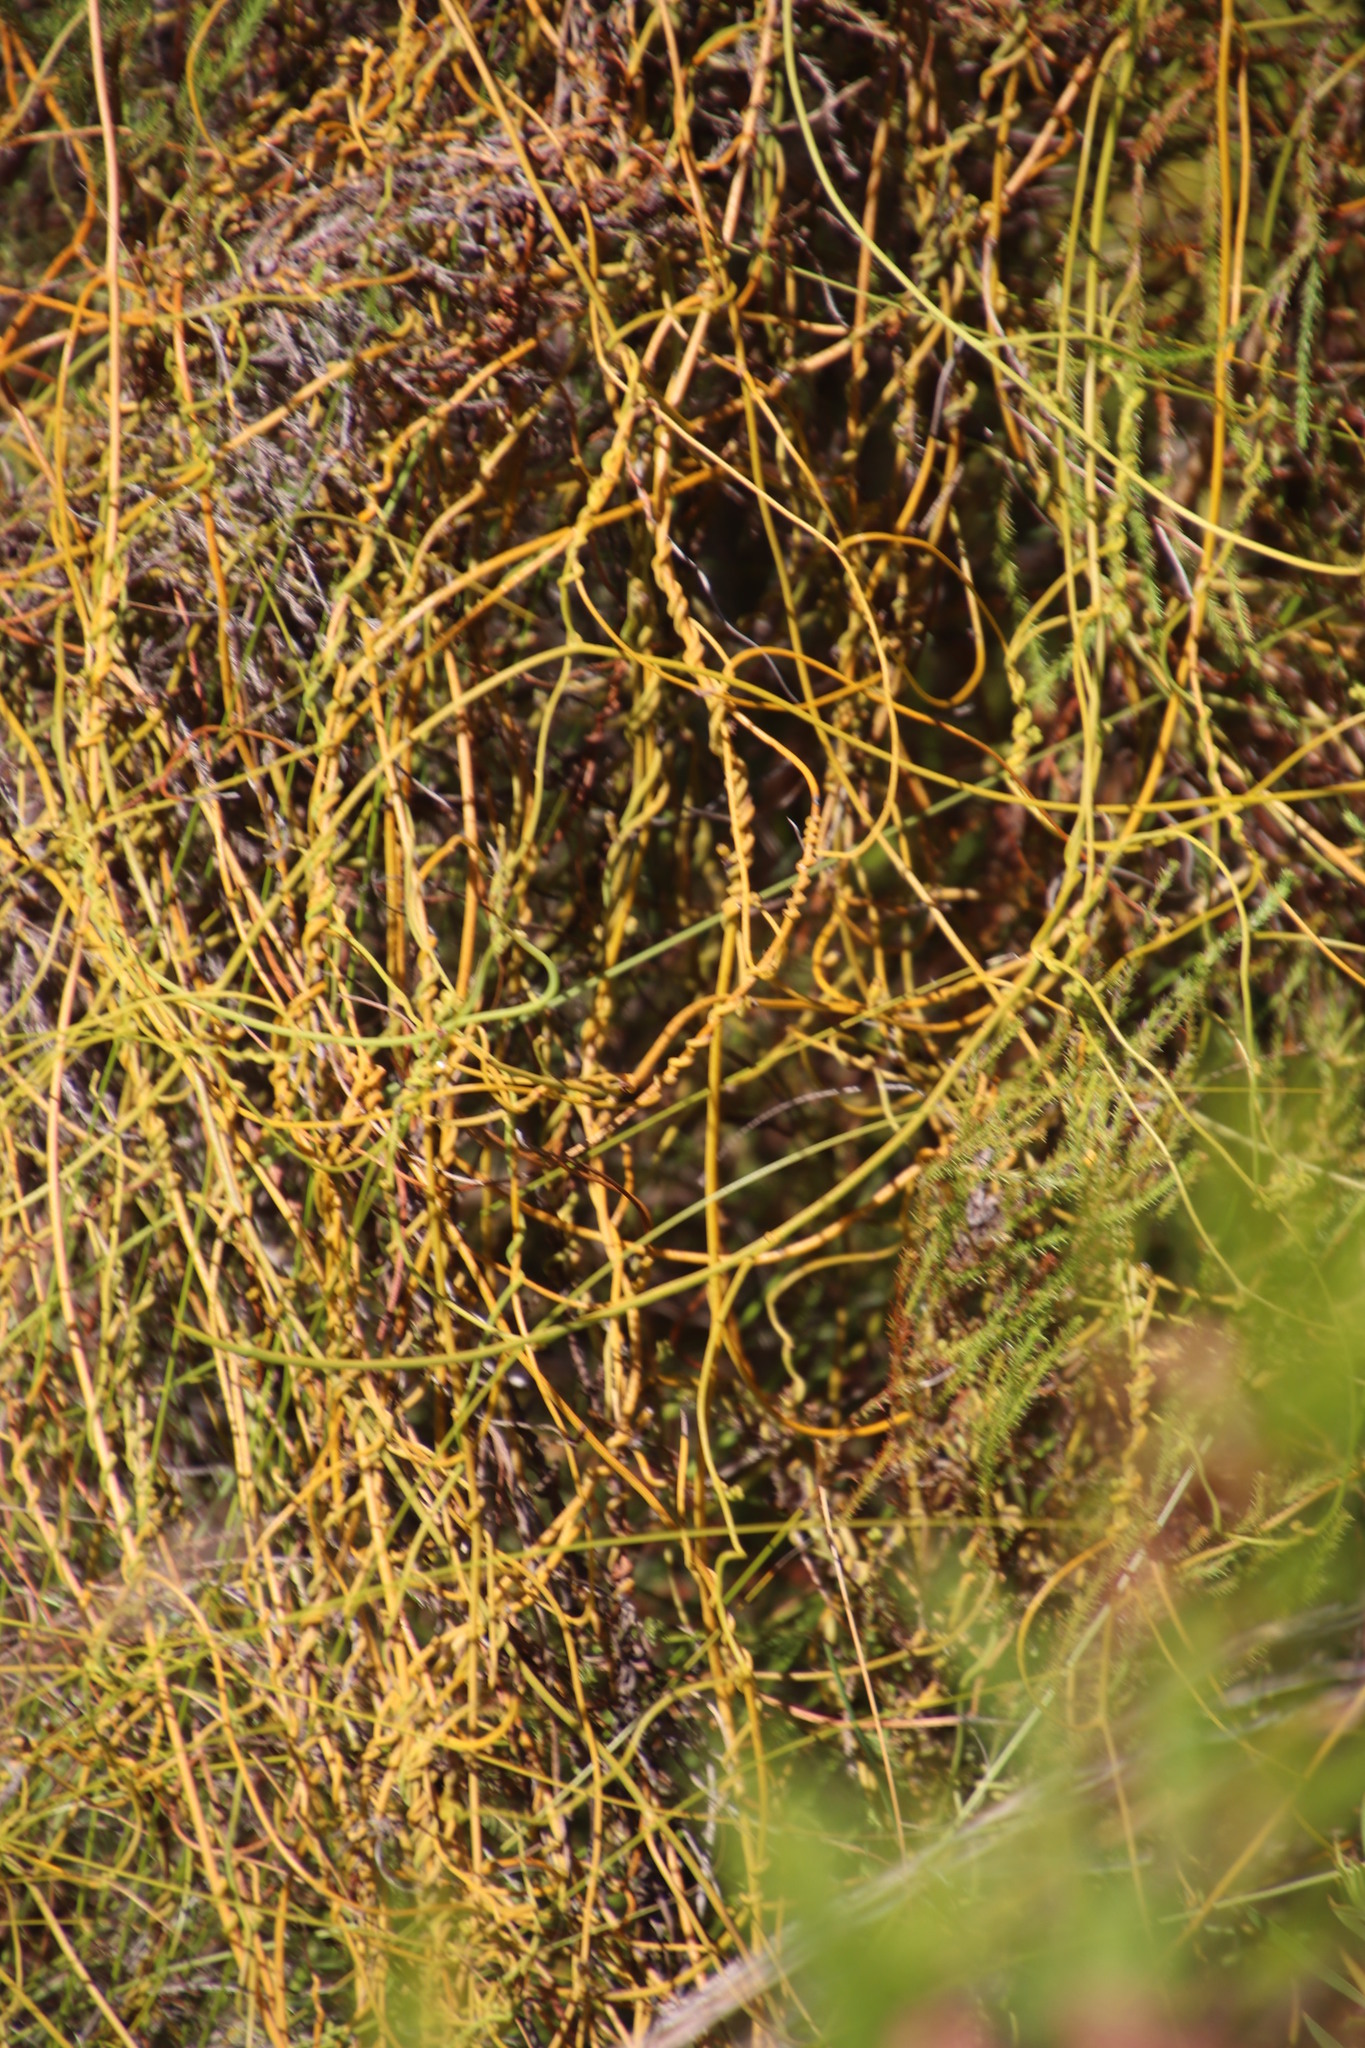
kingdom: Plantae
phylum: Tracheophyta
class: Magnoliopsida
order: Laurales
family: Lauraceae
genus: Cassytha
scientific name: Cassytha ciliolata
